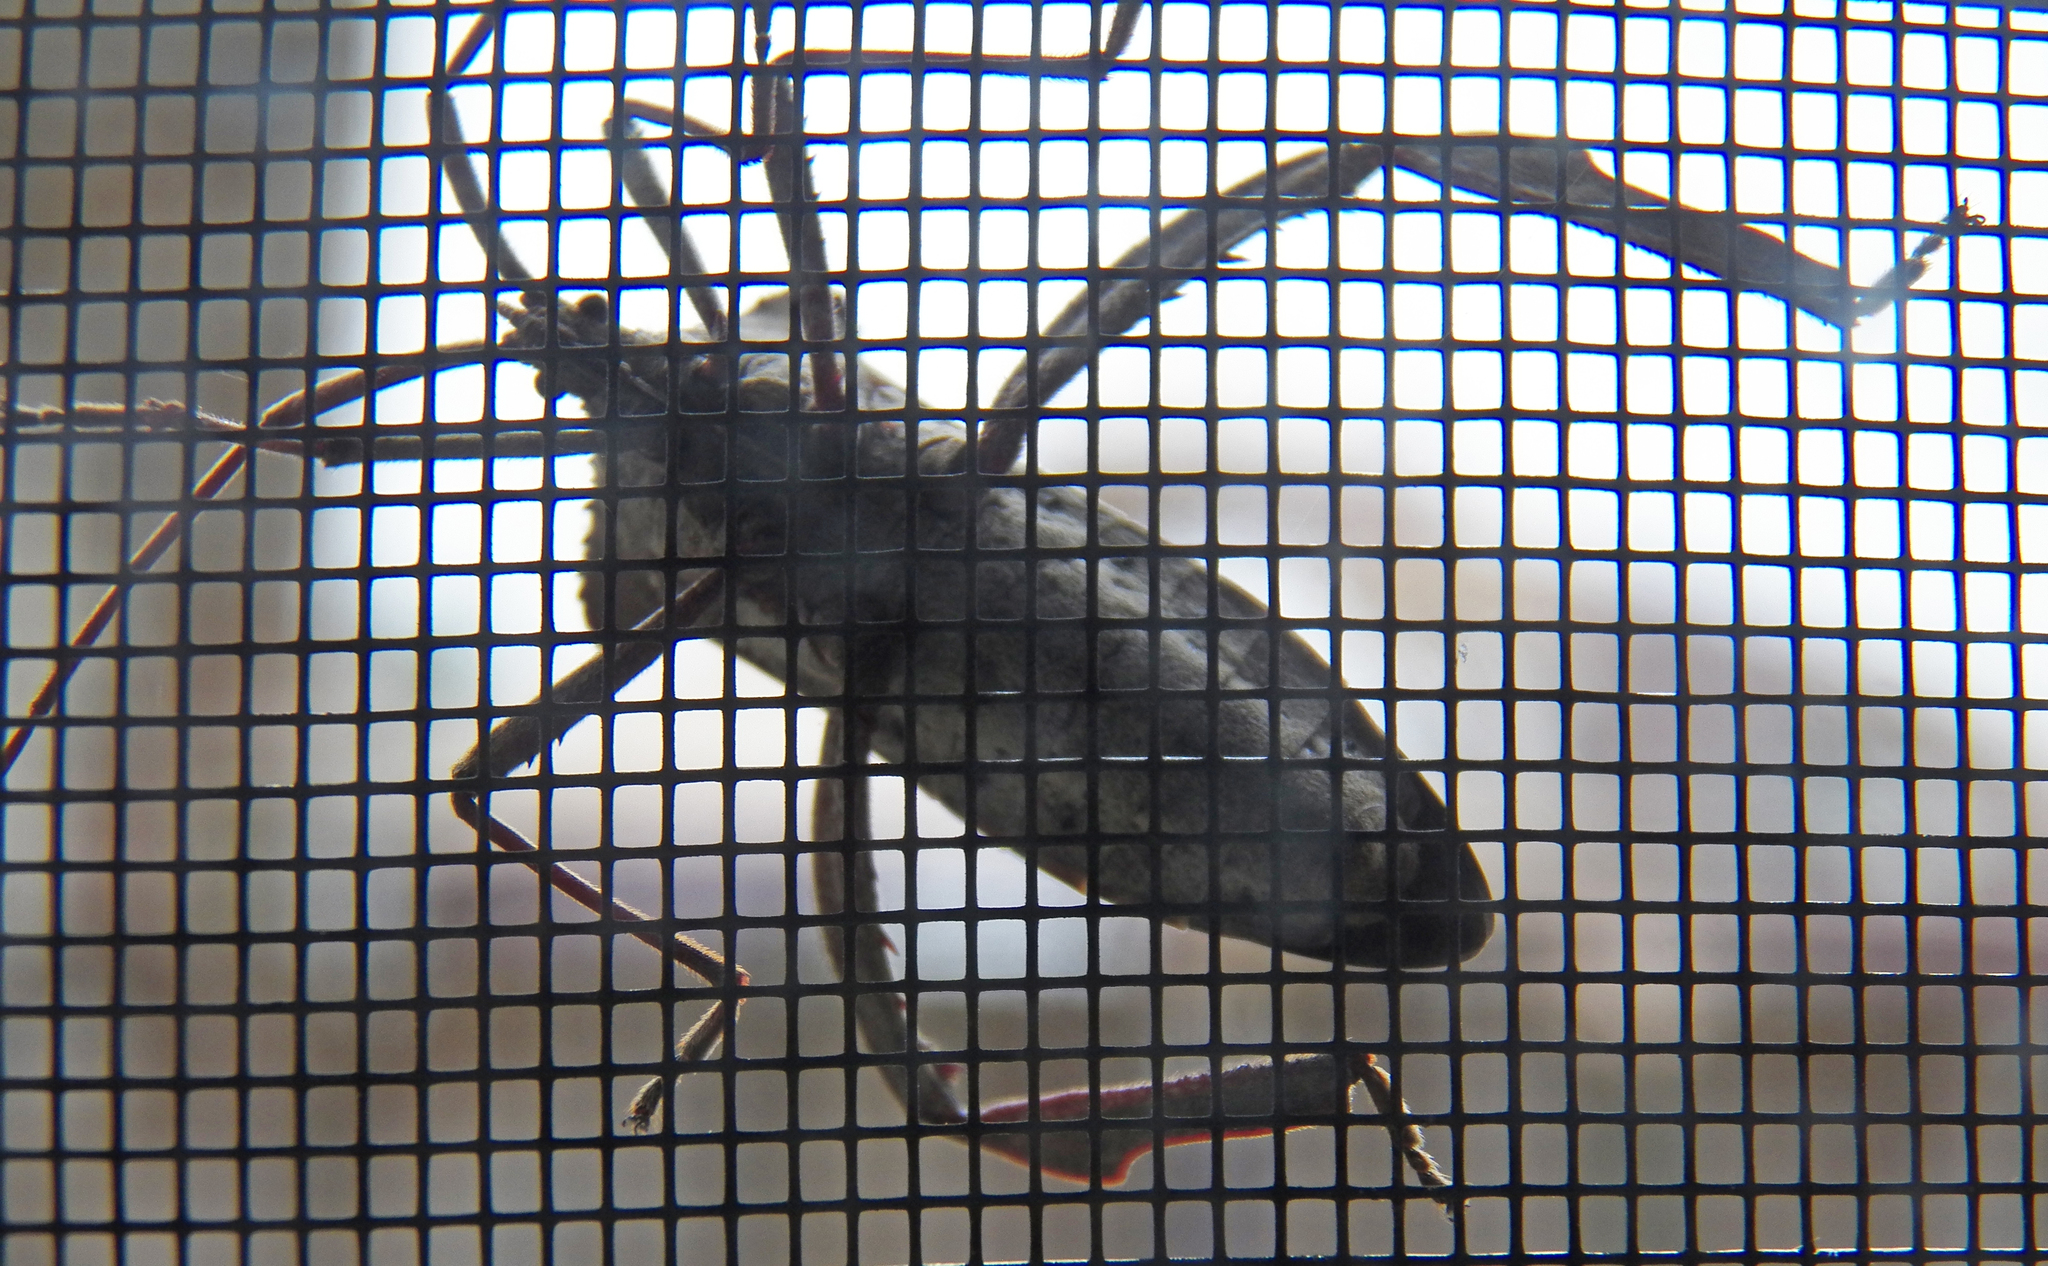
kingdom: Animalia
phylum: Arthropoda
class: Insecta
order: Hemiptera
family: Coreidae
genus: Acanthocephala
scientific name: Acanthocephala declivis
